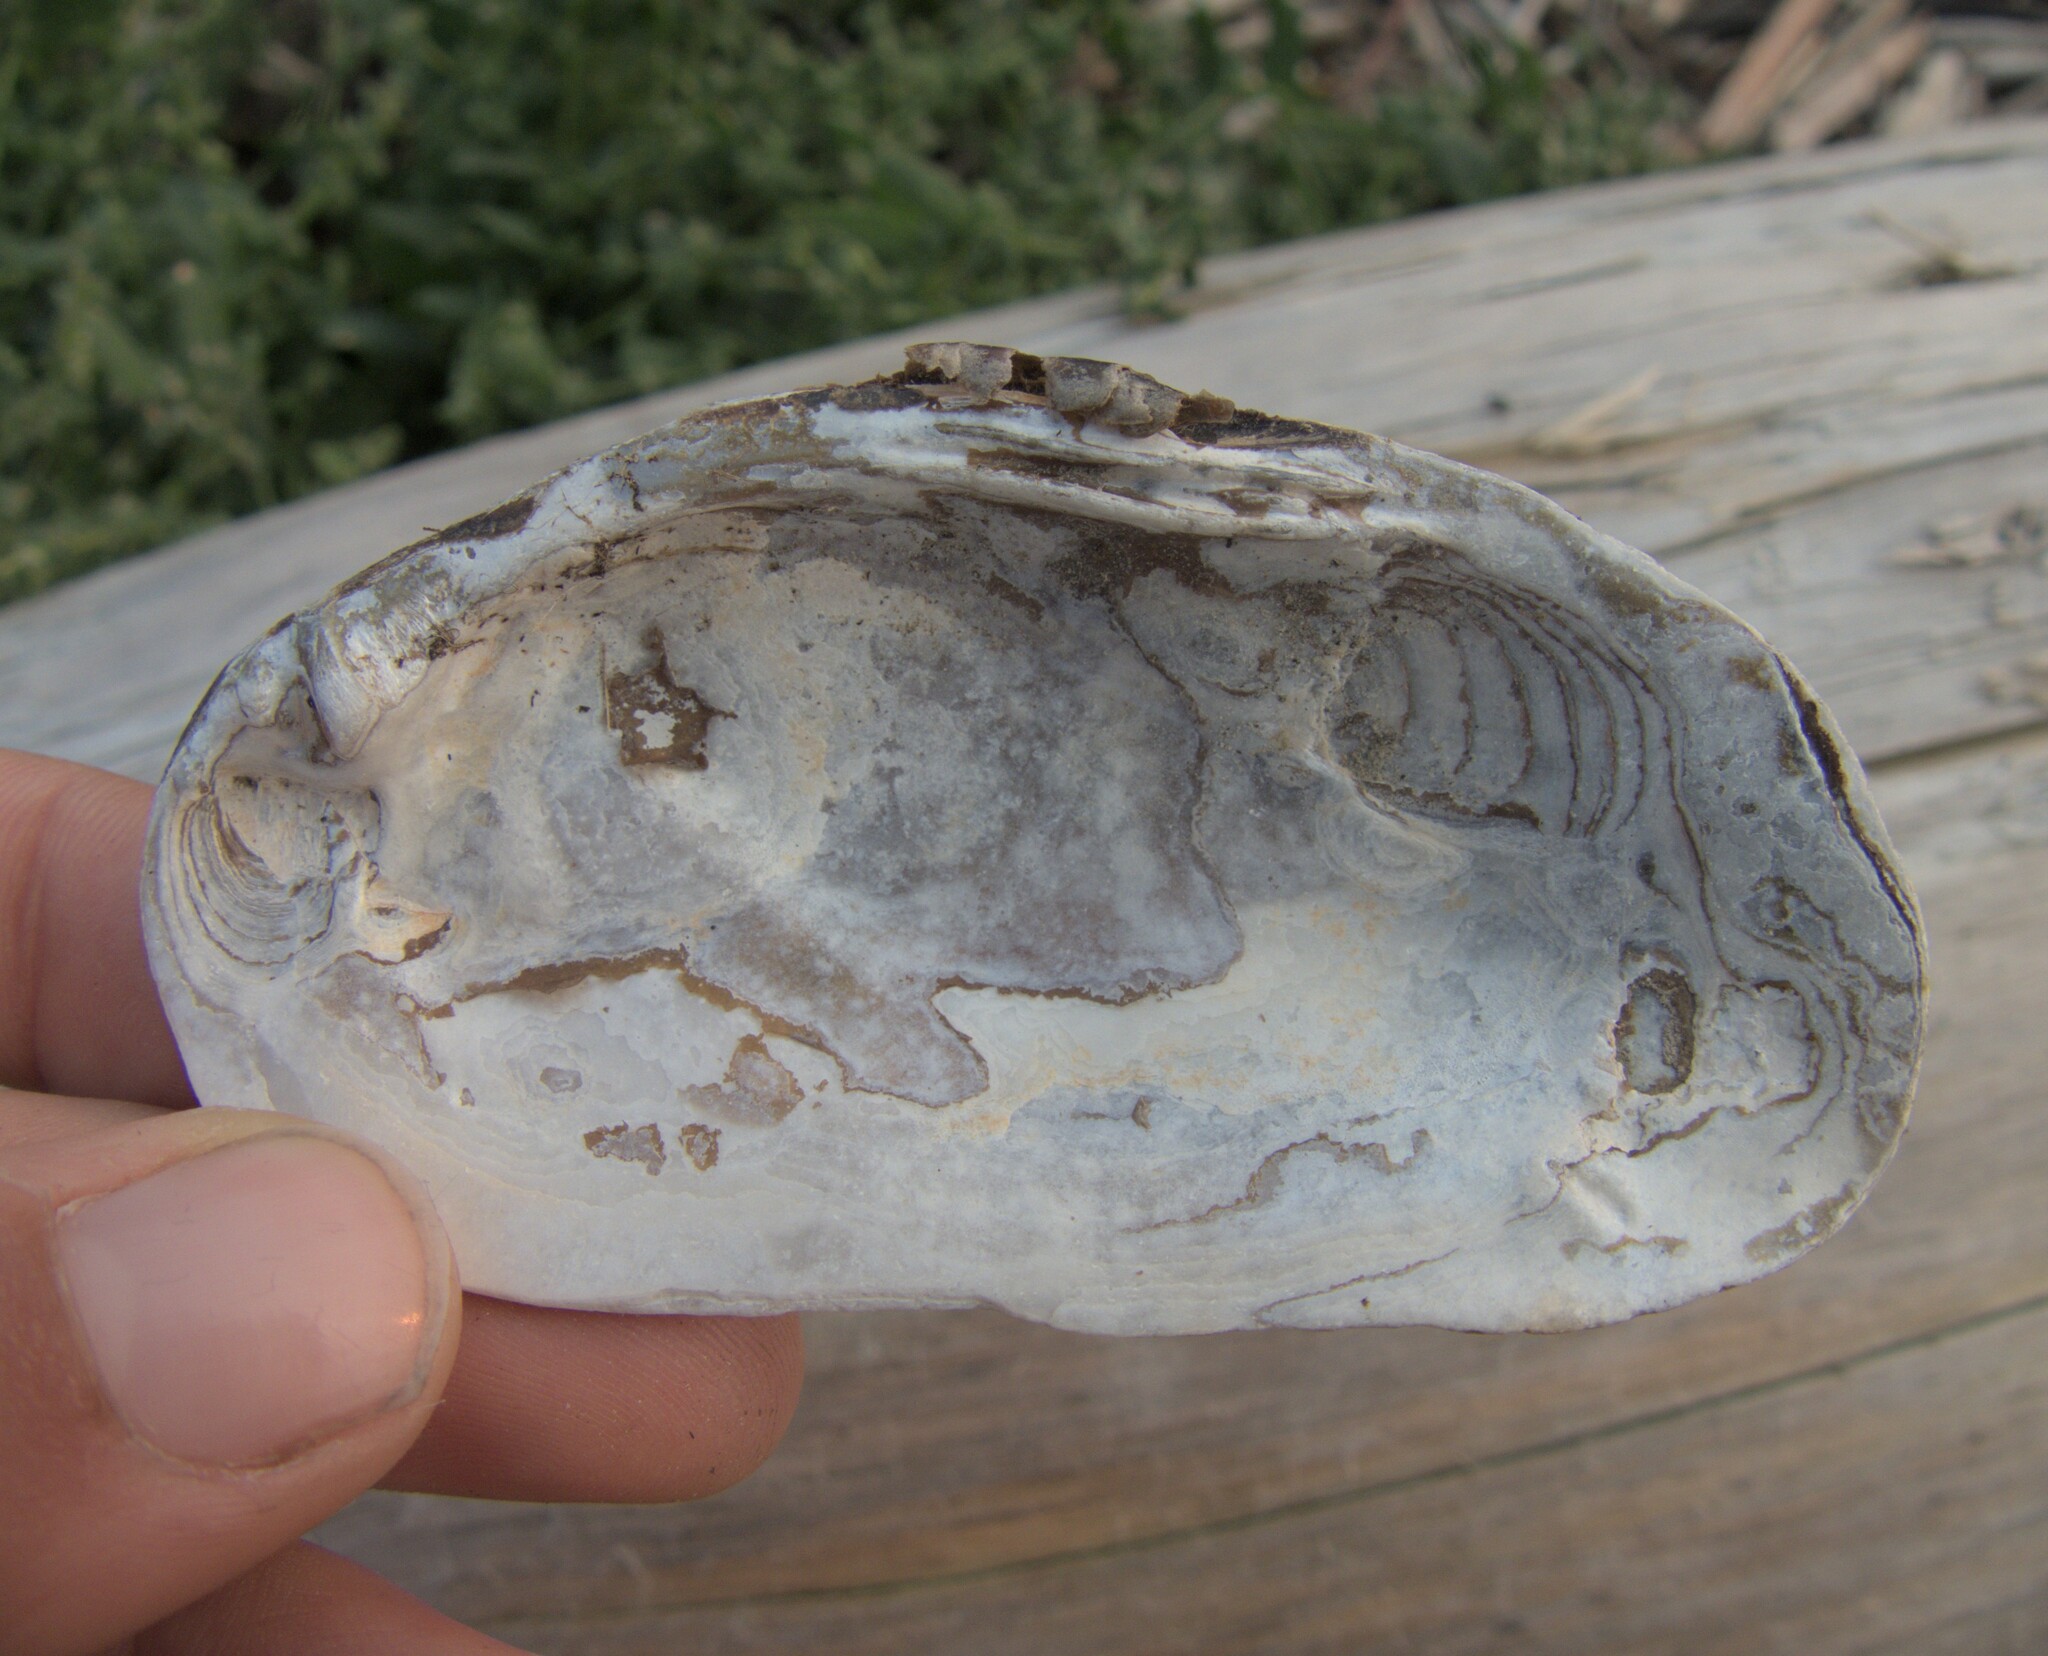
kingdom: Animalia
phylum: Mollusca
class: Bivalvia
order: Unionida
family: Unionidae
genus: Elliptio
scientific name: Elliptio complanata
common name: Eastern elliptio
